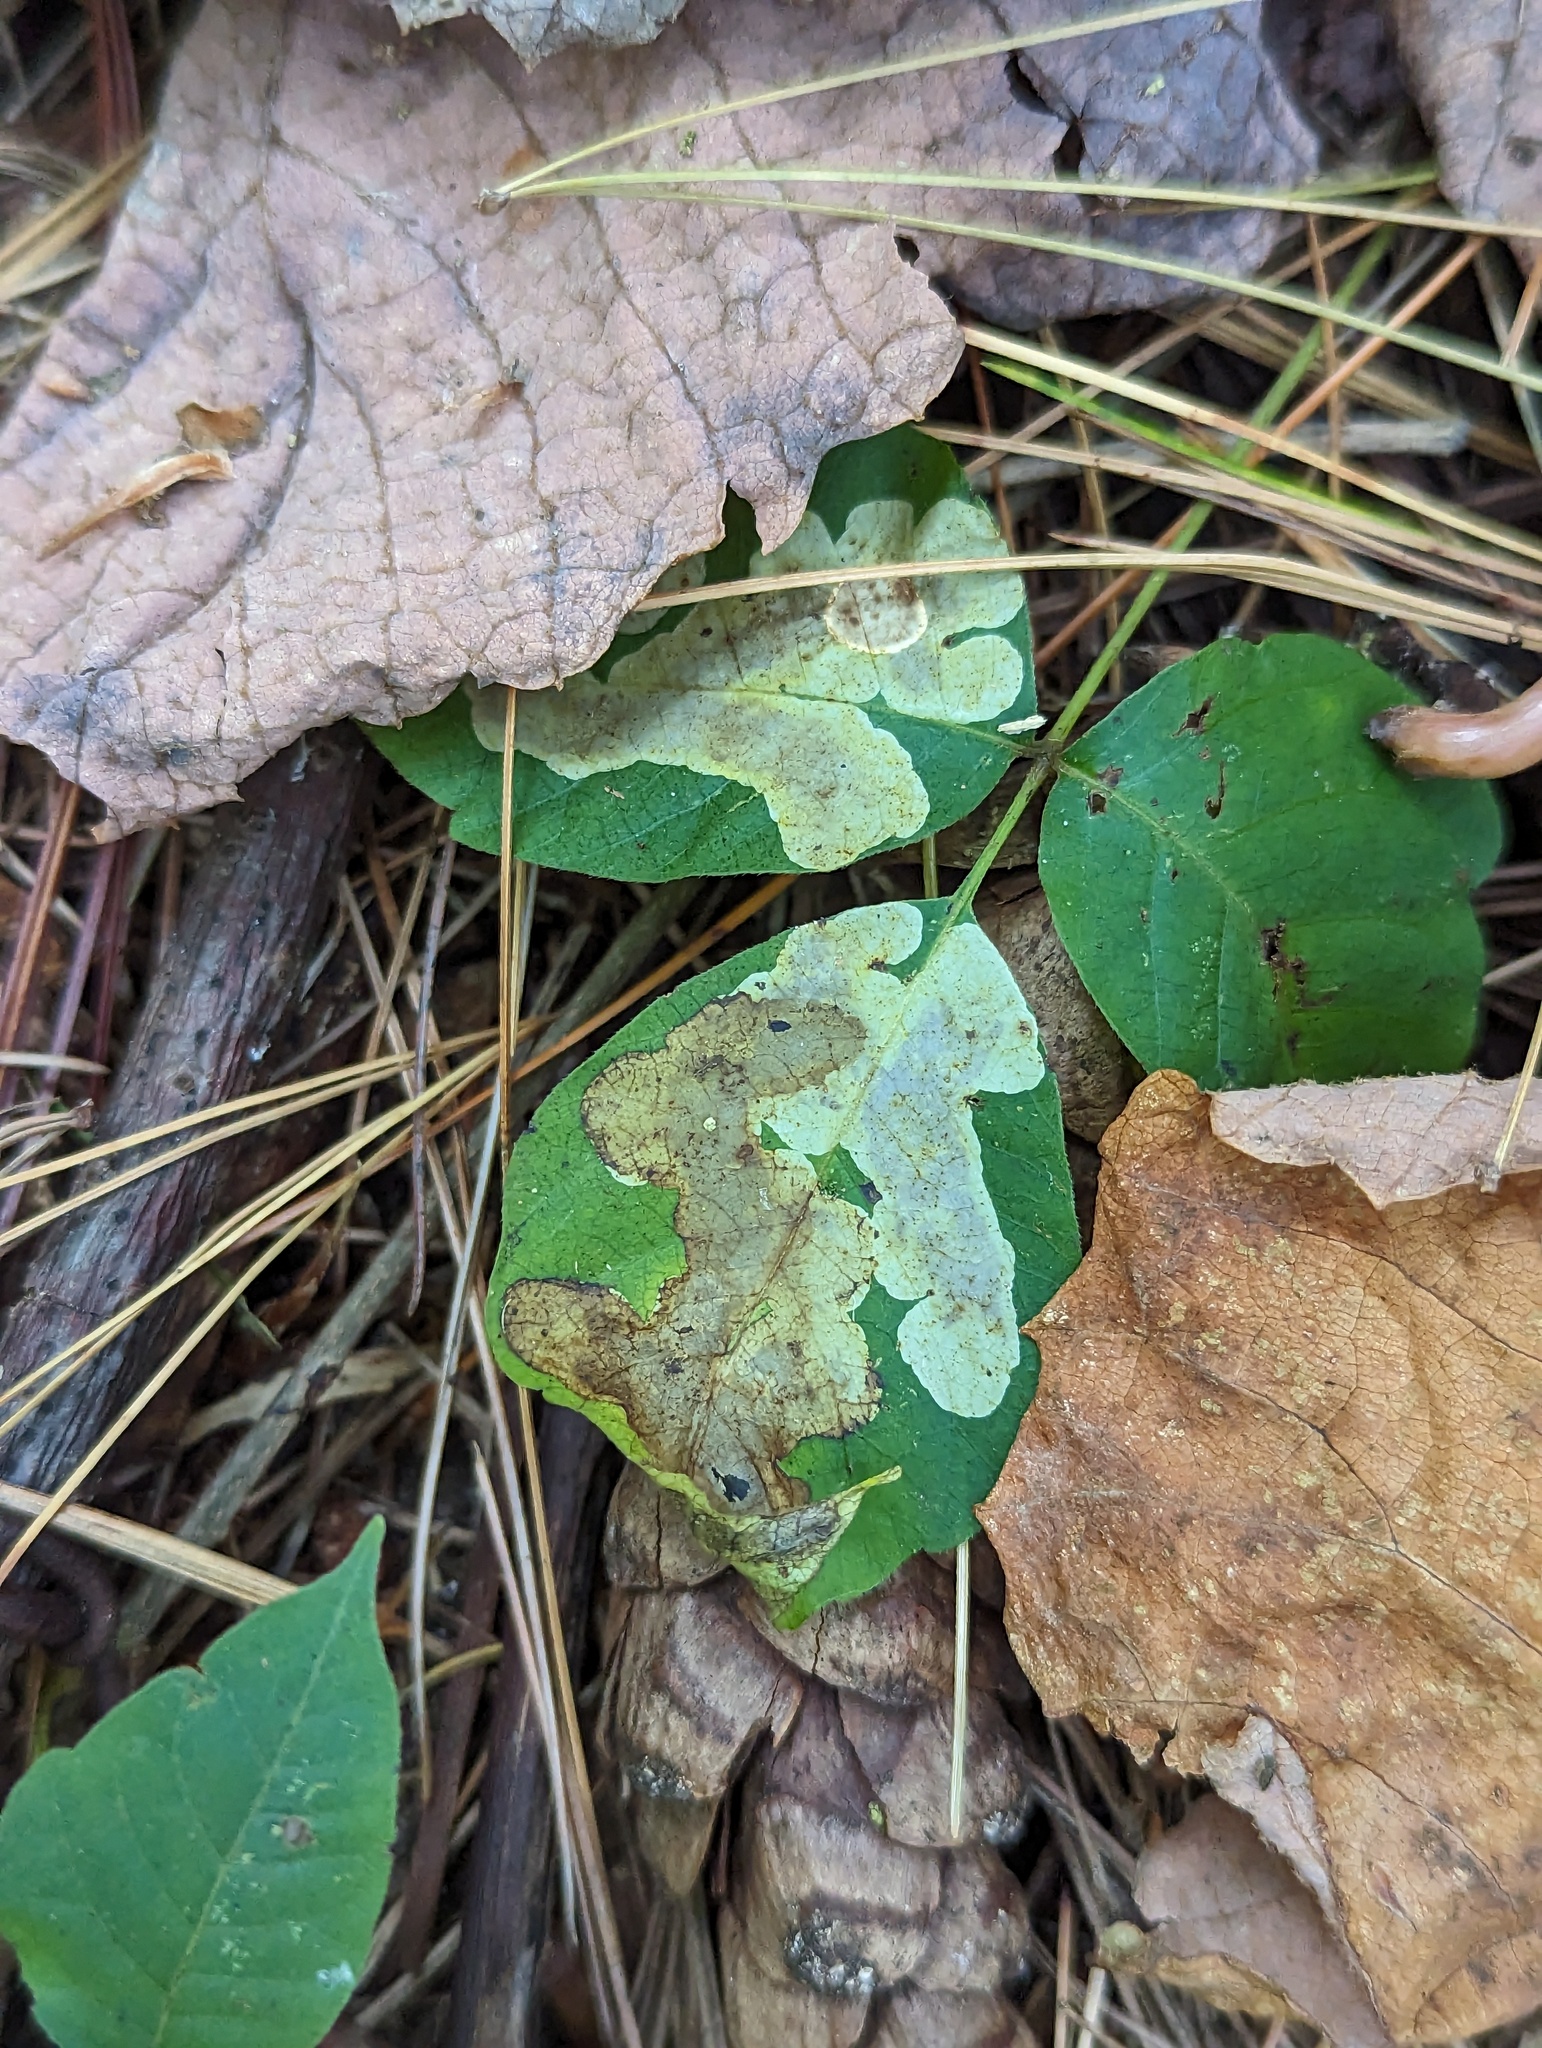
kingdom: Animalia
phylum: Arthropoda
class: Insecta
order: Lepidoptera
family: Gracillariidae
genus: Cameraria
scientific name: Cameraria guttifinitella
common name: Poison ivy leaf-miner moth
